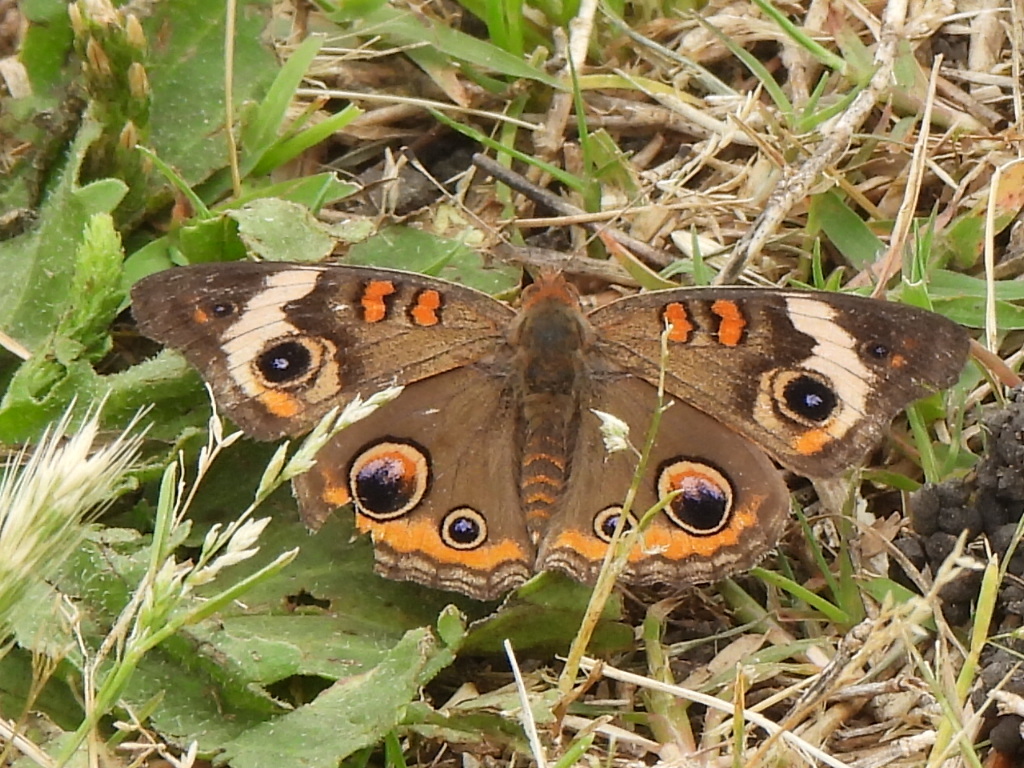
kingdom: Animalia
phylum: Arthropoda
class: Insecta
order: Lepidoptera
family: Nymphalidae
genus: Junonia
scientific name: Junonia coenia
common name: Common buckeye
